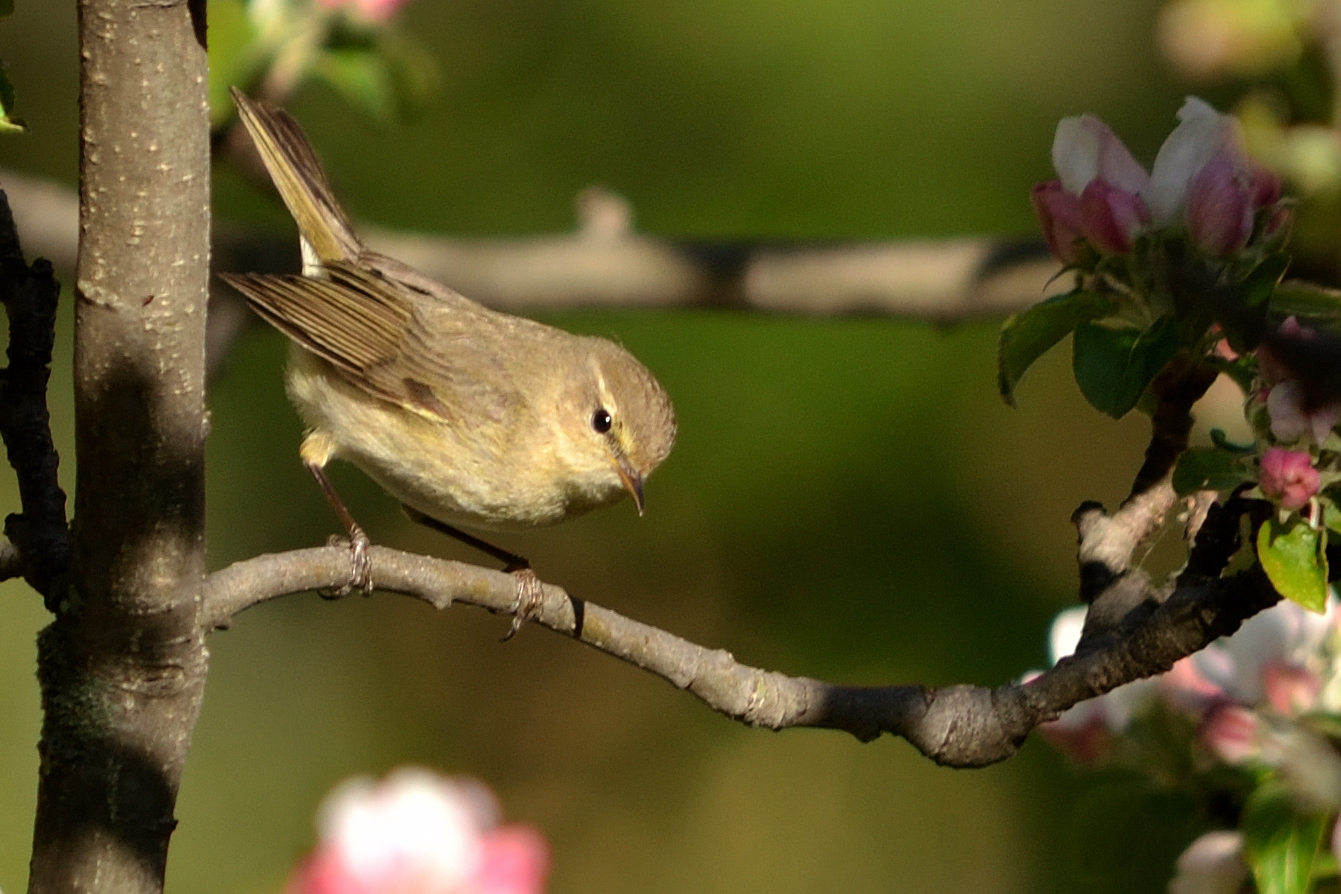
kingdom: Animalia
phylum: Chordata
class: Aves
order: Passeriformes
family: Phylloscopidae
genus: Phylloscopus
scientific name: Phylloscopus collybita
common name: Common chiffchaff
